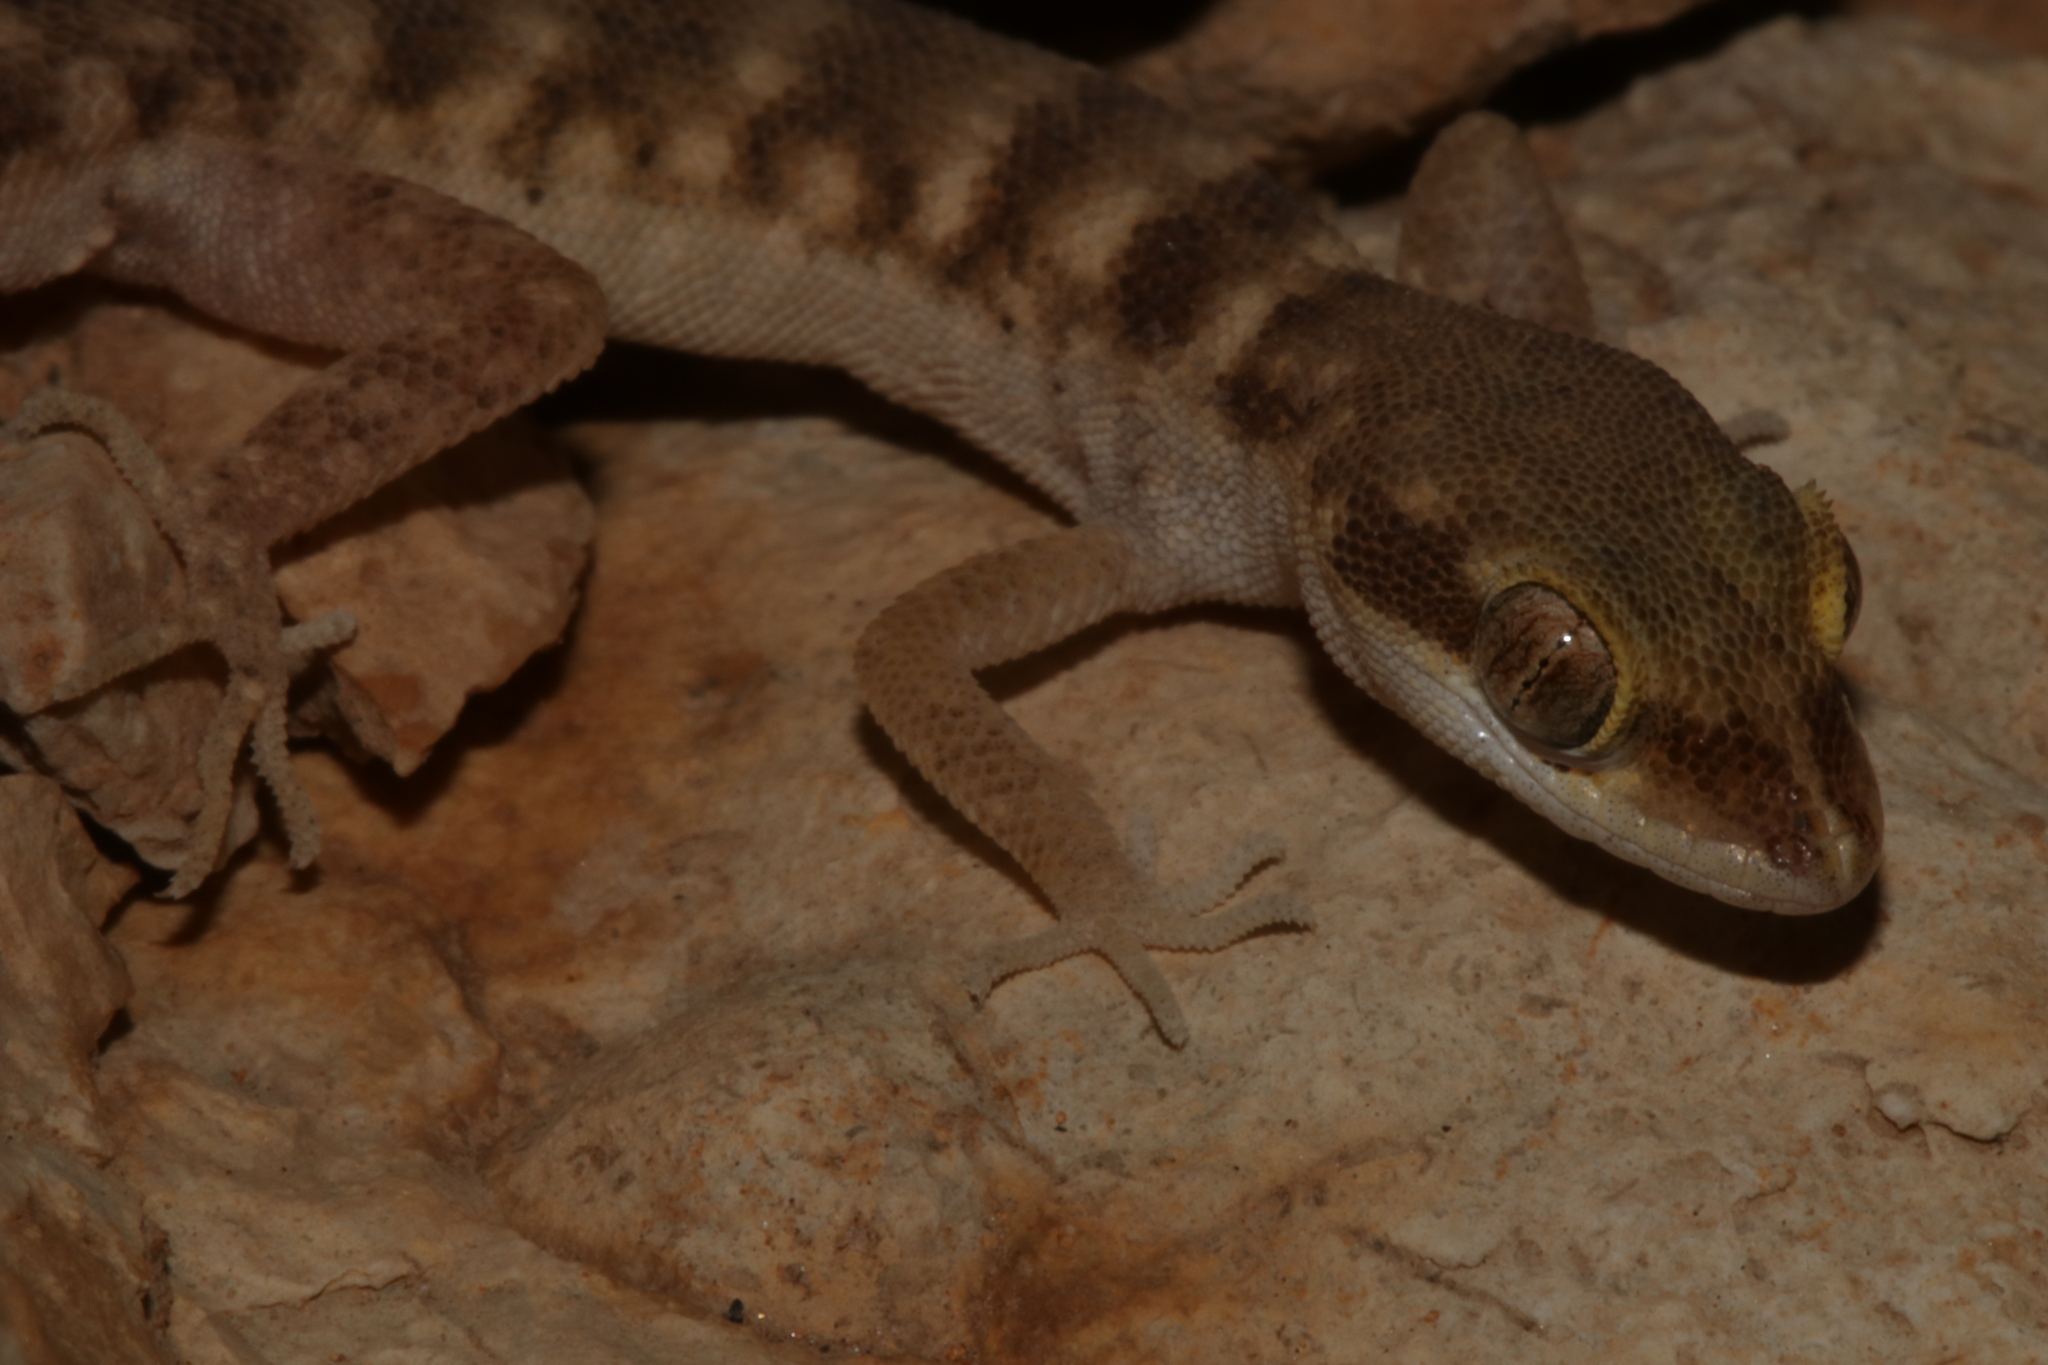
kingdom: Animalia
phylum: Chordata
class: Squamata
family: Gekkonidae
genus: Tropiocolotes
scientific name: Tropiocolotes wolfgangboehmei
